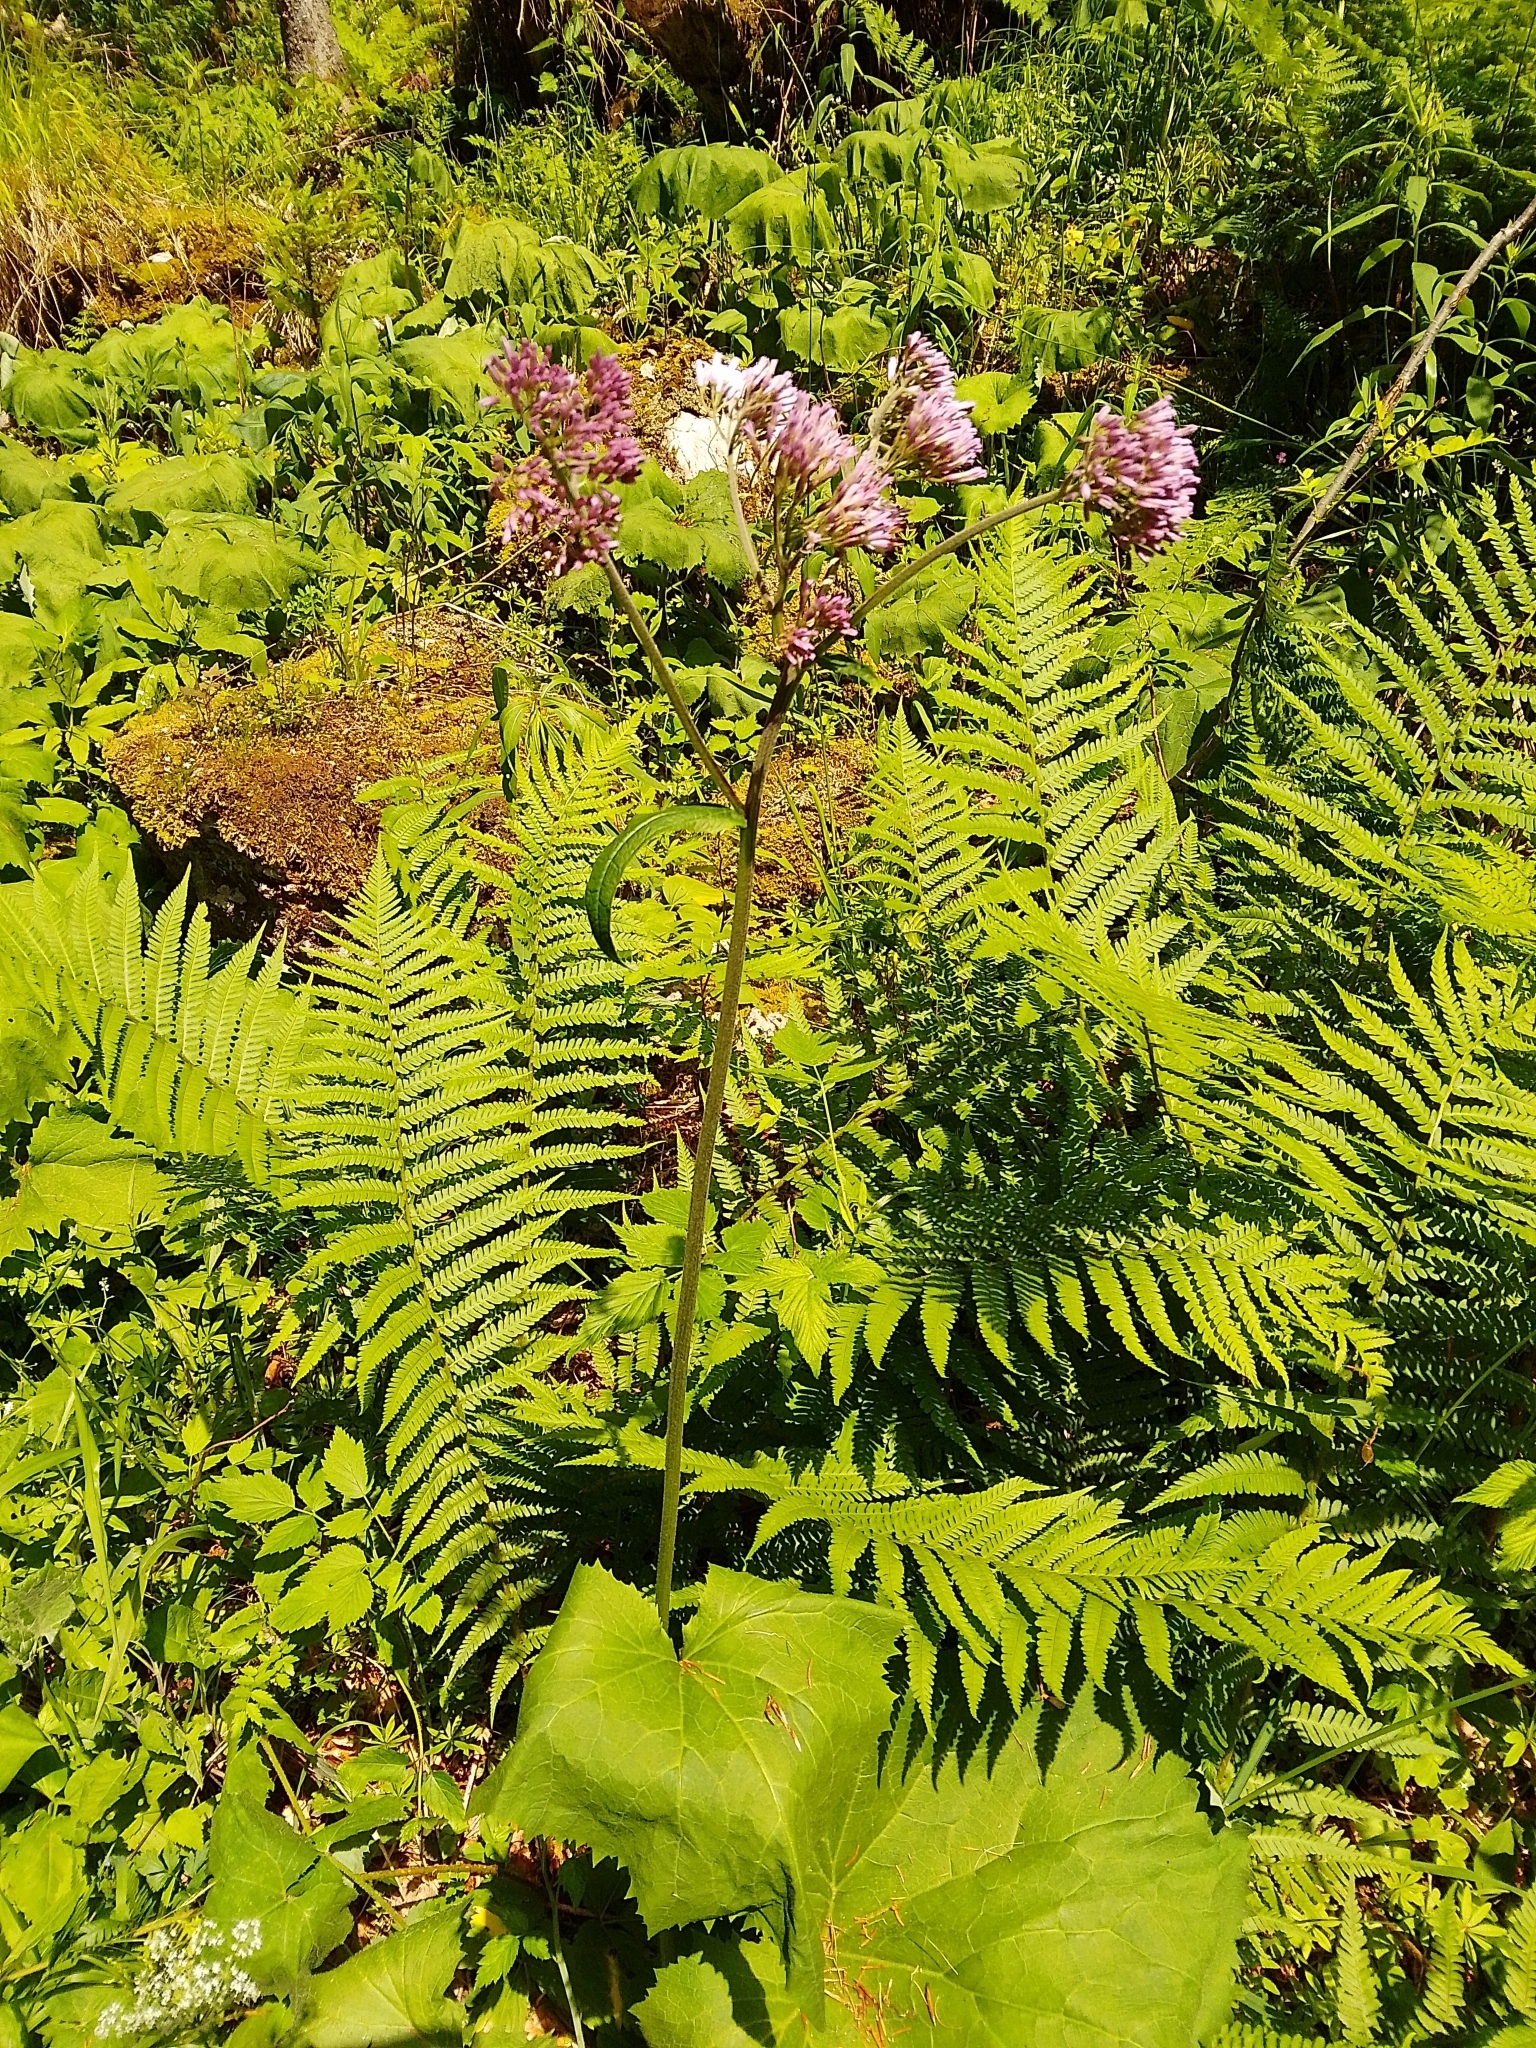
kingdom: Plantae
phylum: Tracheophyta
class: Magnoliopsida
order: Asterales
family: Asteraceae
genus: Adenostyles
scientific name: Adenostyles alliariae
